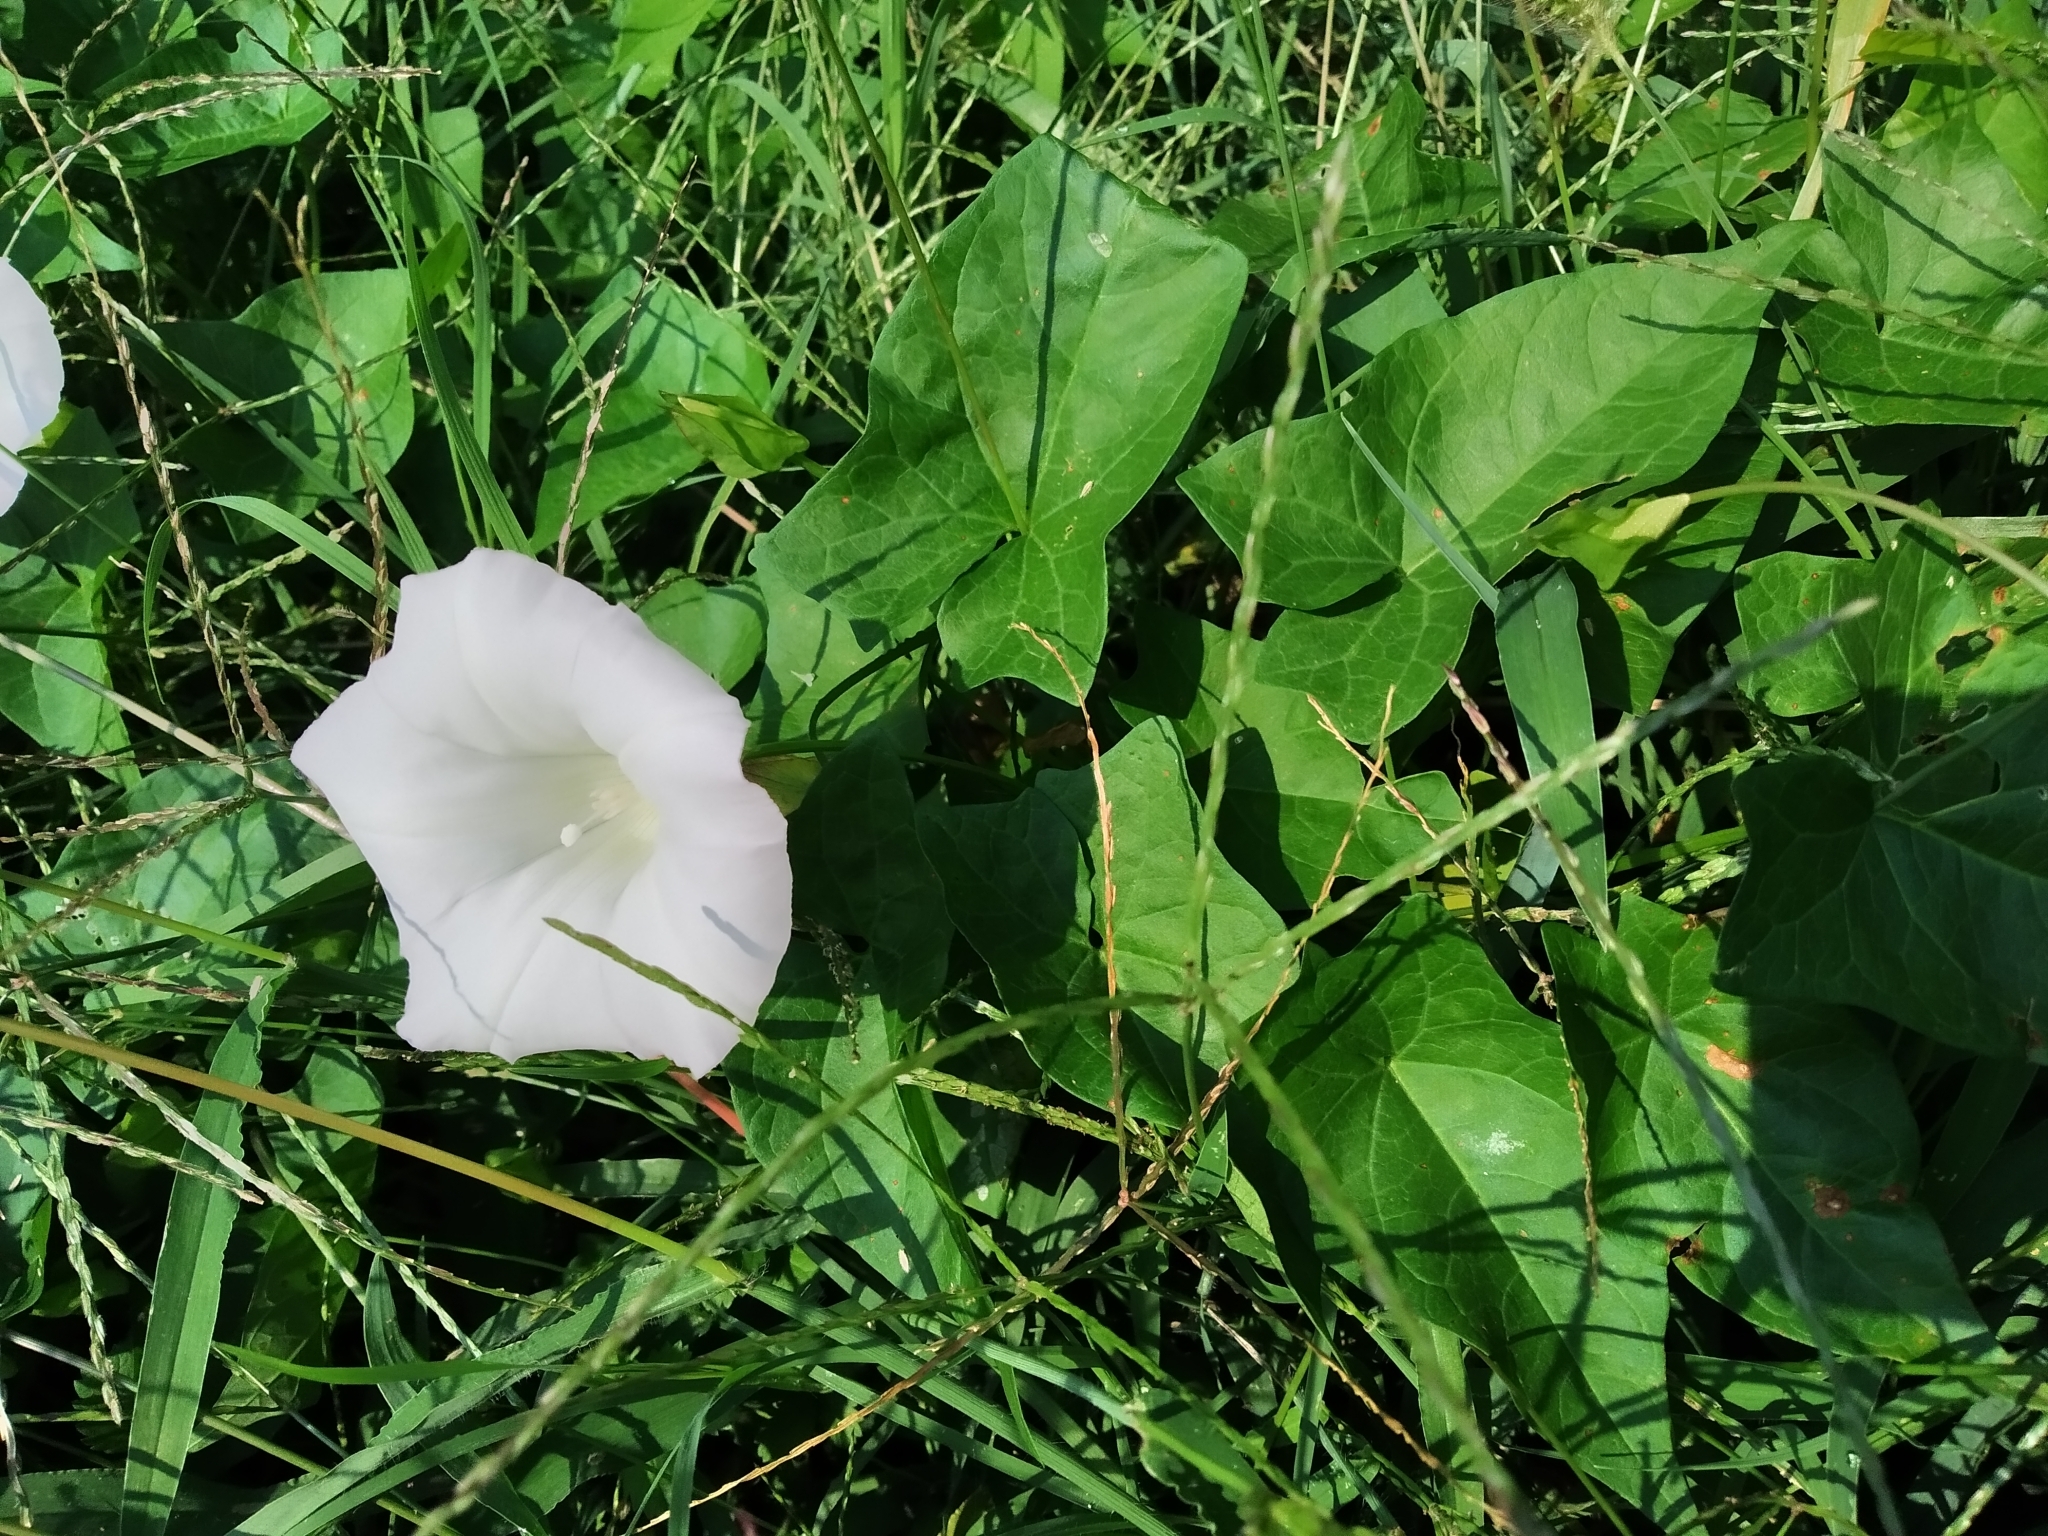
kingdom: Plantae
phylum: Tracheophyta
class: Magnoliopsida
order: Solanales
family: Convolvulaceae
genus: Calystegia
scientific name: Calystegia sepium
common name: Hedge bindweed
